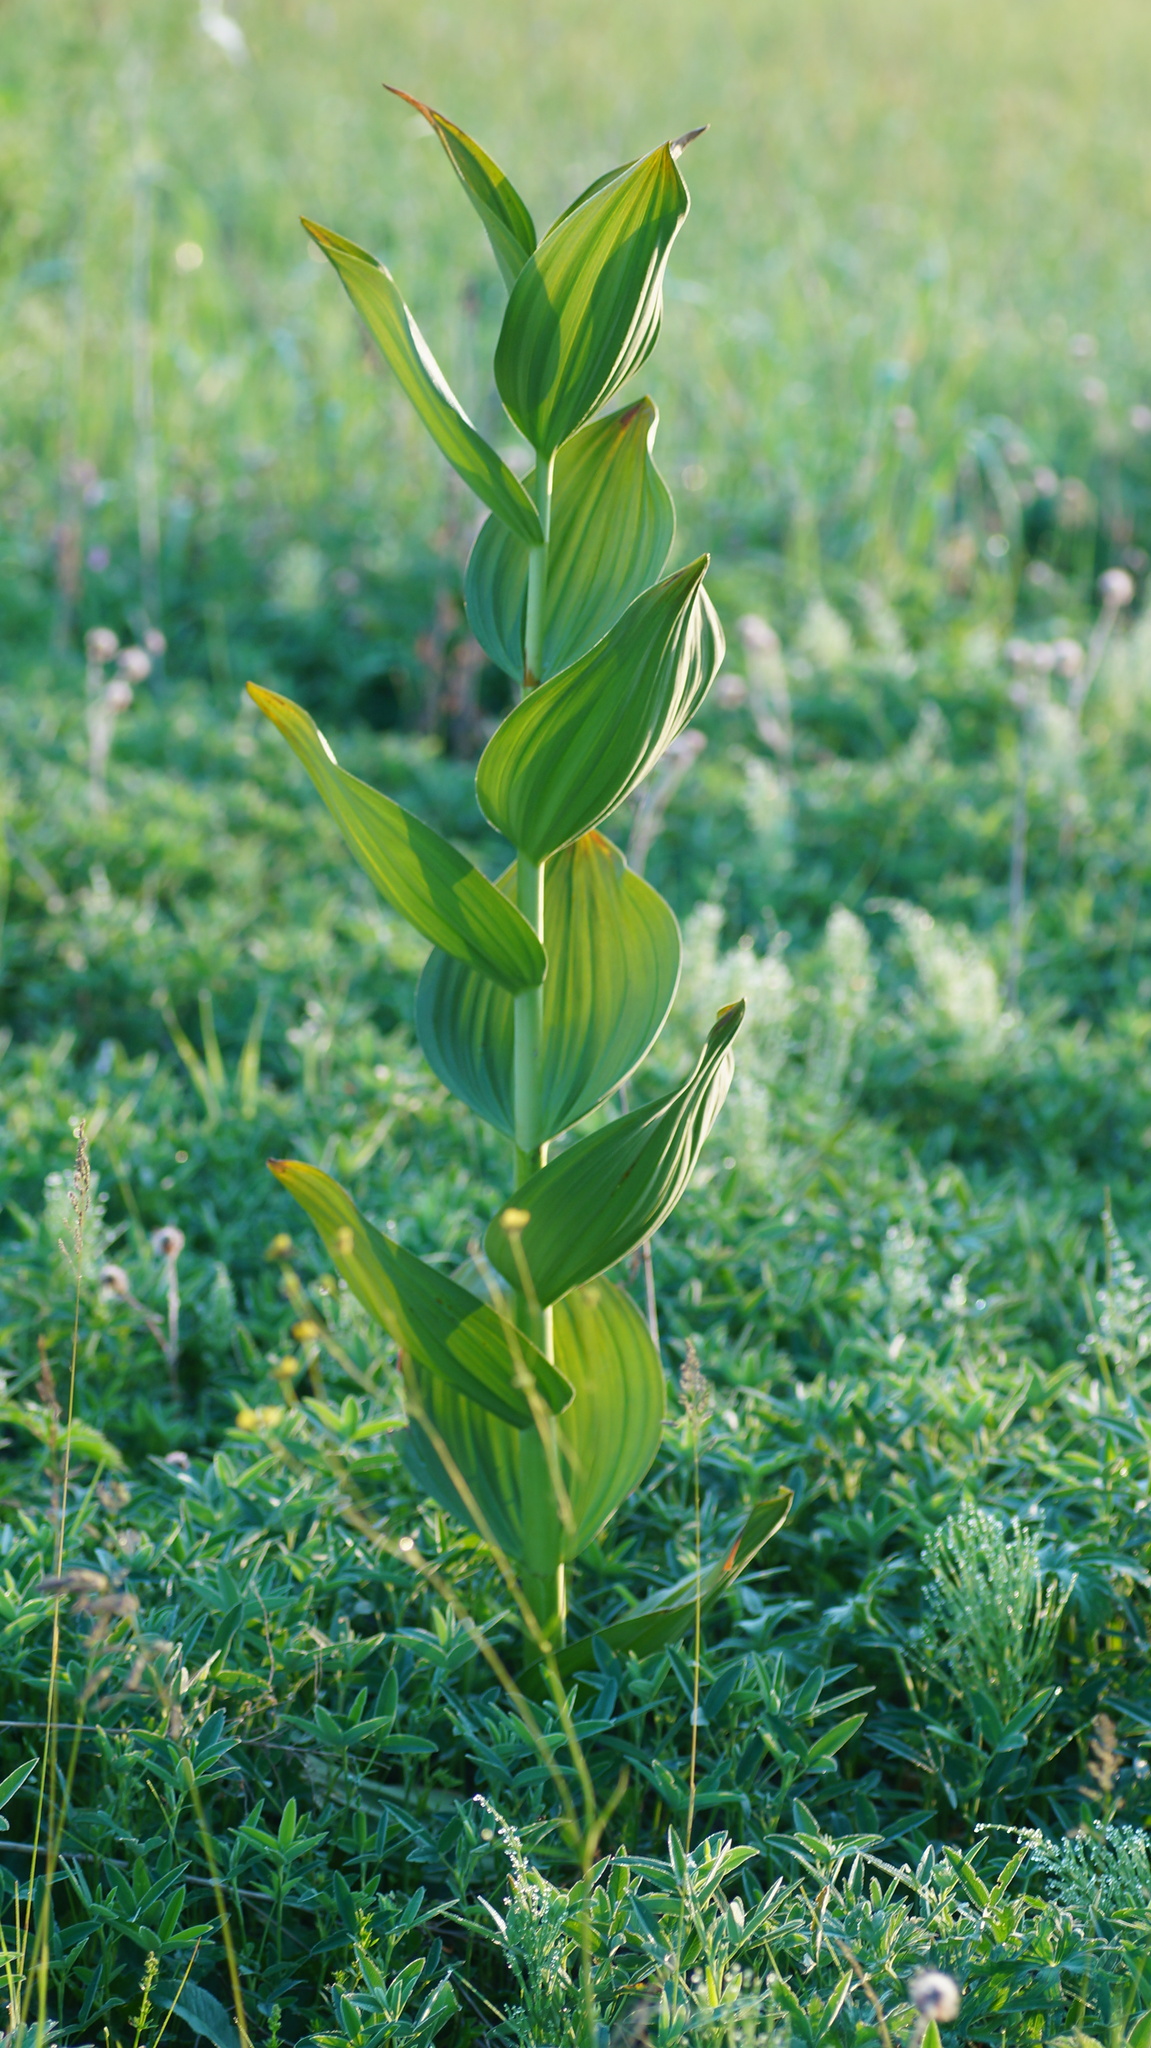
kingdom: Plantae
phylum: Tracheophyta
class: Liliopsida
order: Liliales
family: Melanthiaceae
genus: Veratrum
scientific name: Veratrum lobelianum
